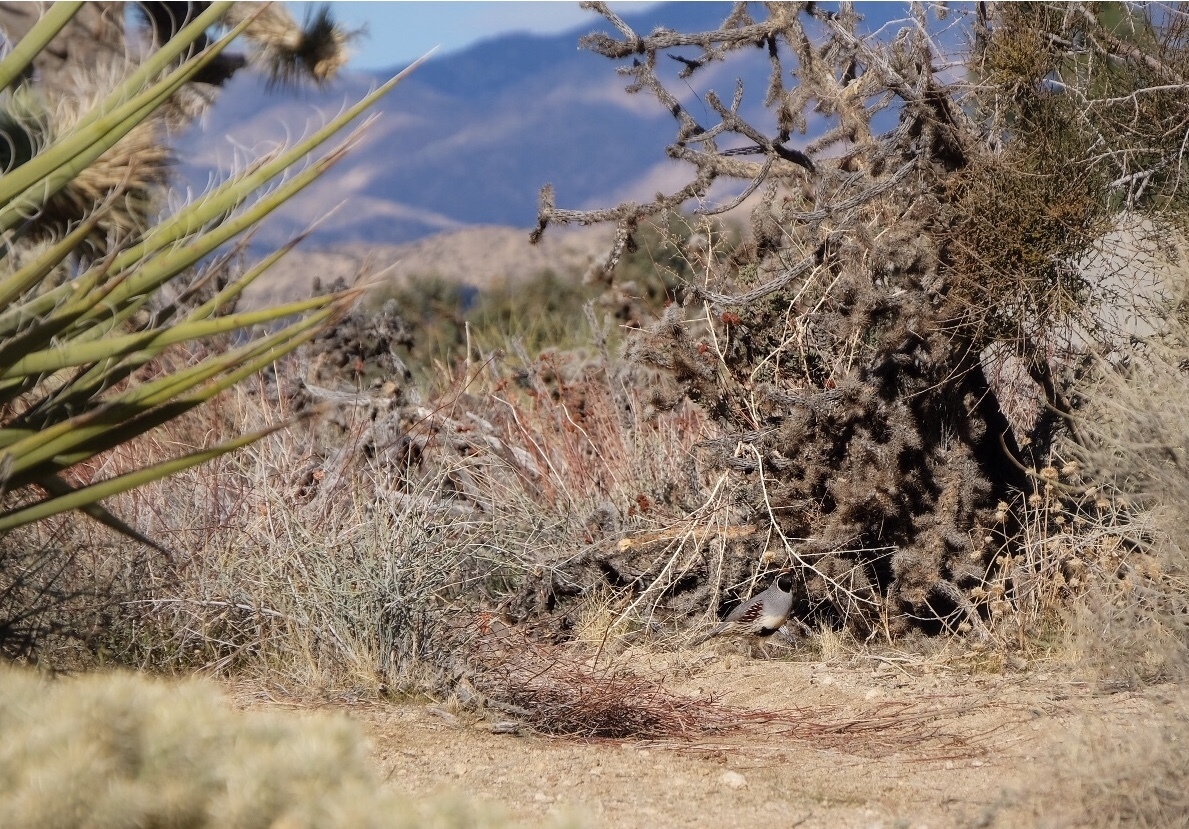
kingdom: Animalia
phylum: Chordata
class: Aves
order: Galliformes
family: Odontophoridae
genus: Callipepla
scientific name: Callipepla gambelii
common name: Gambel's quail
